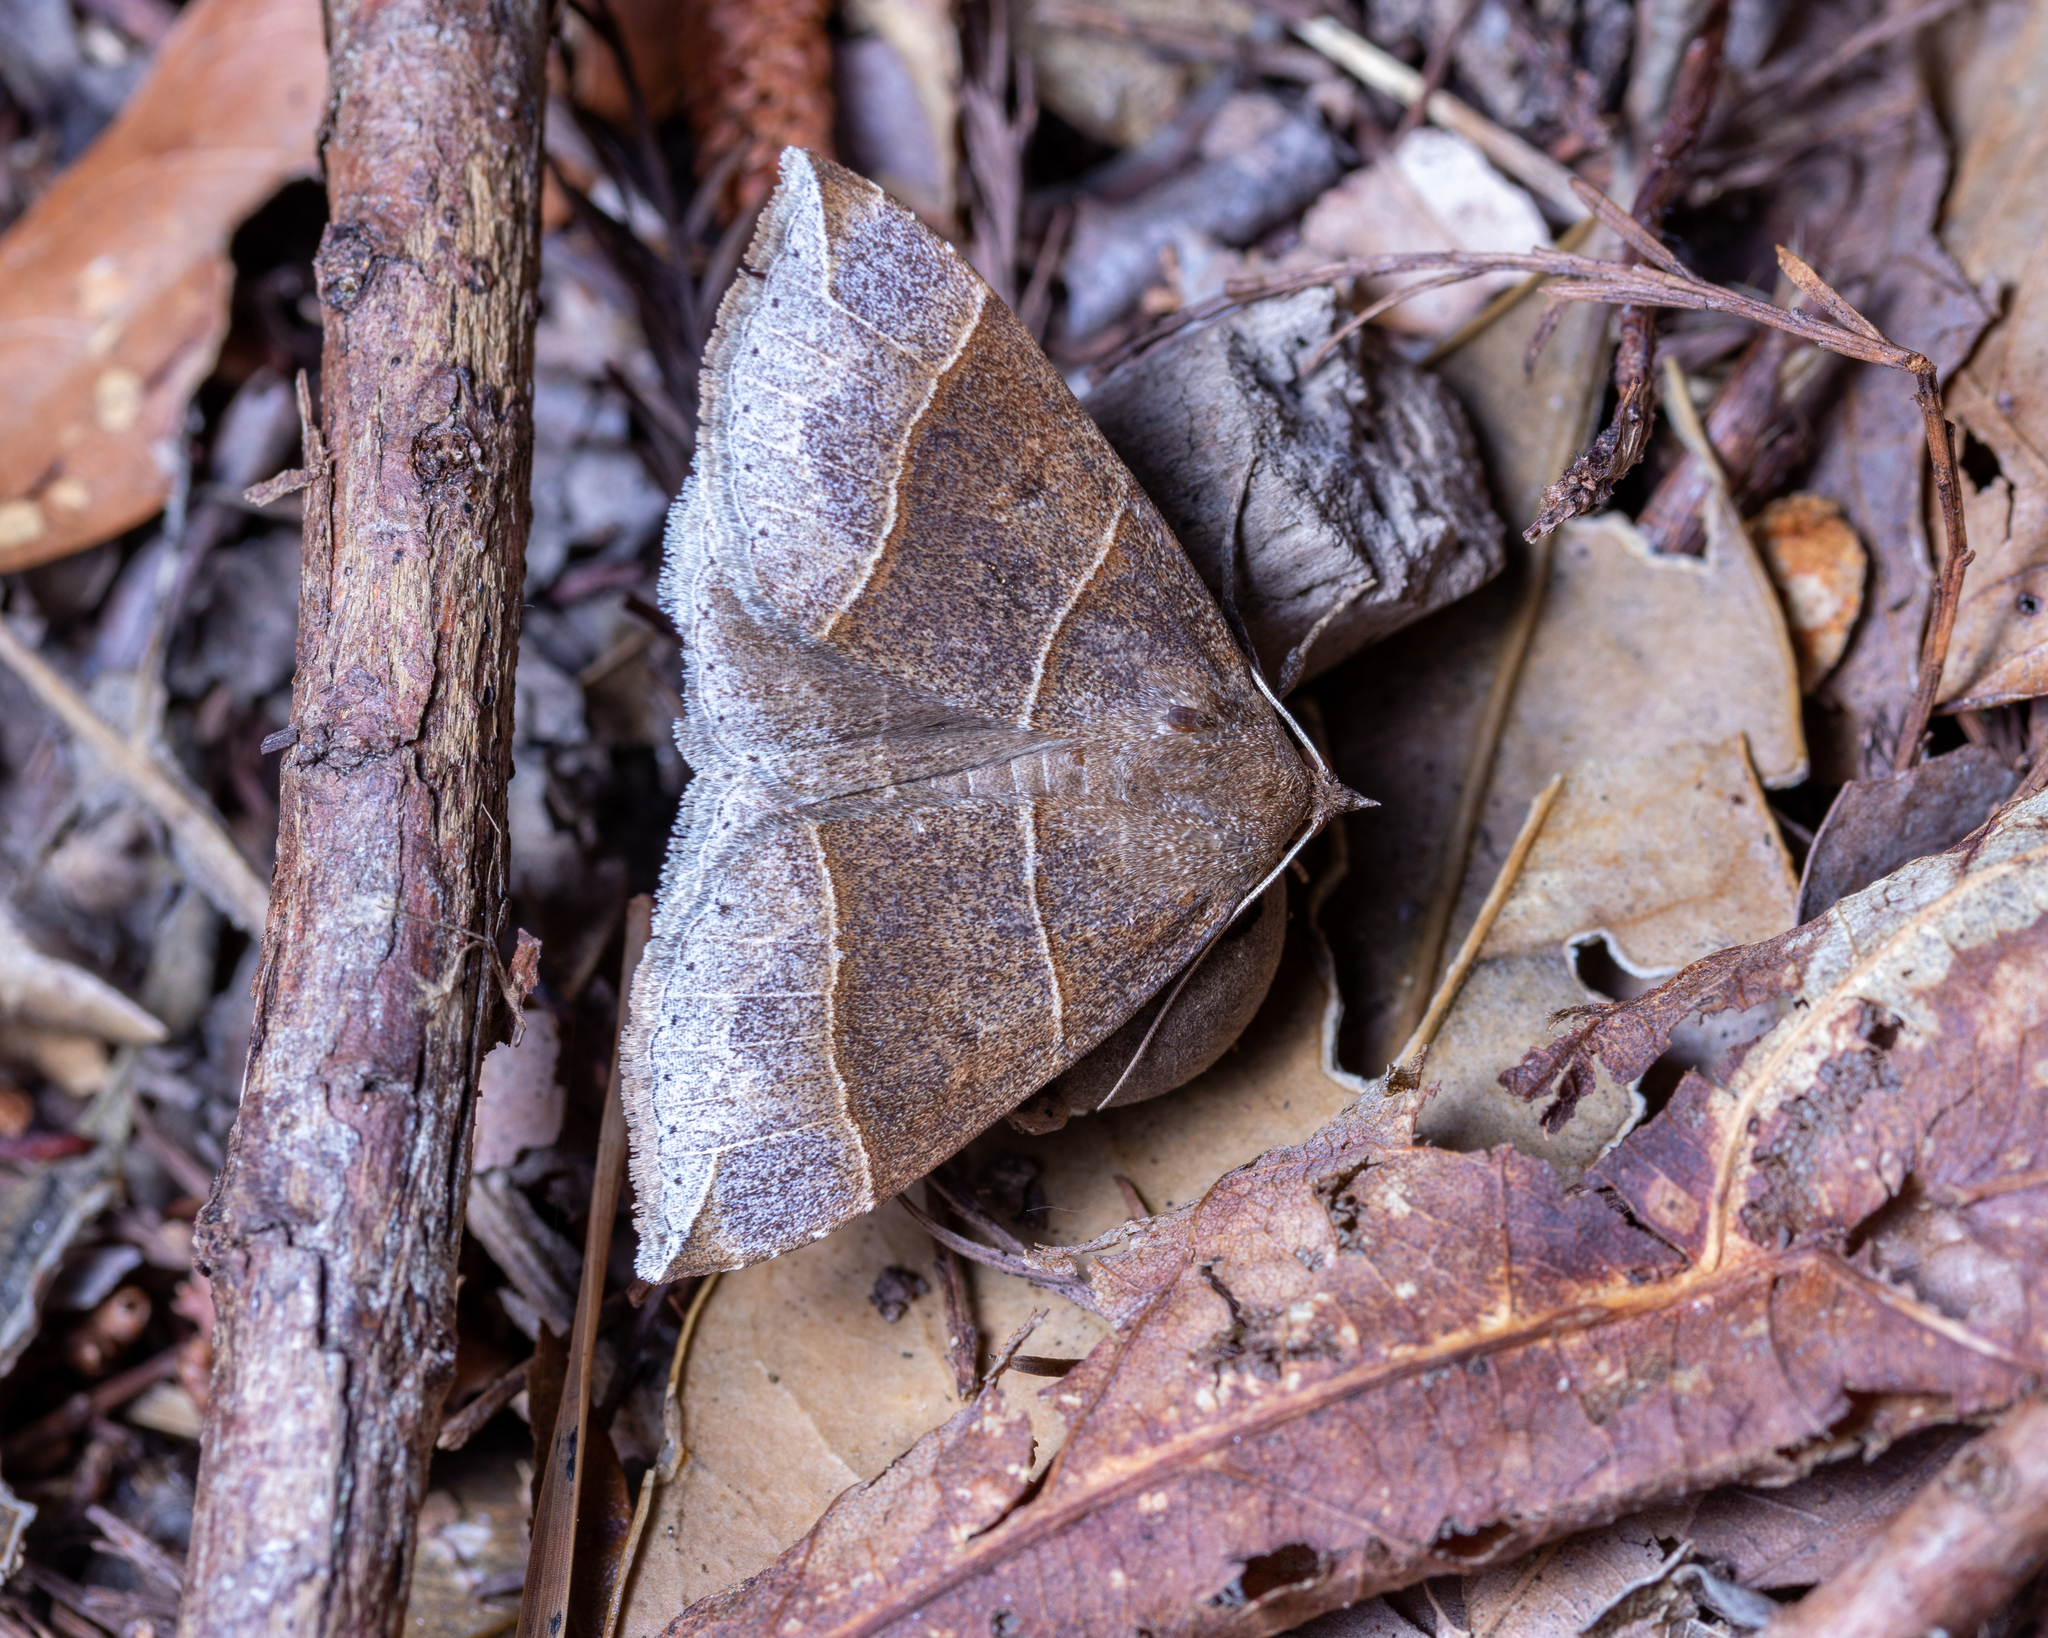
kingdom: Animalia
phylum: Arthropoda
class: Insecta
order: Lepidoptera
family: Erebidae
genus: Parallelia
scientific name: Parallelia bistriaris
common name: Maple looper moth
